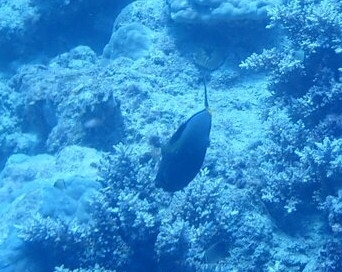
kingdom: Animalia
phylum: Chordata
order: Perciformes
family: Acanthuridae
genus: Naso
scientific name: Naso lituratus
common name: Orangespine unicornfish
